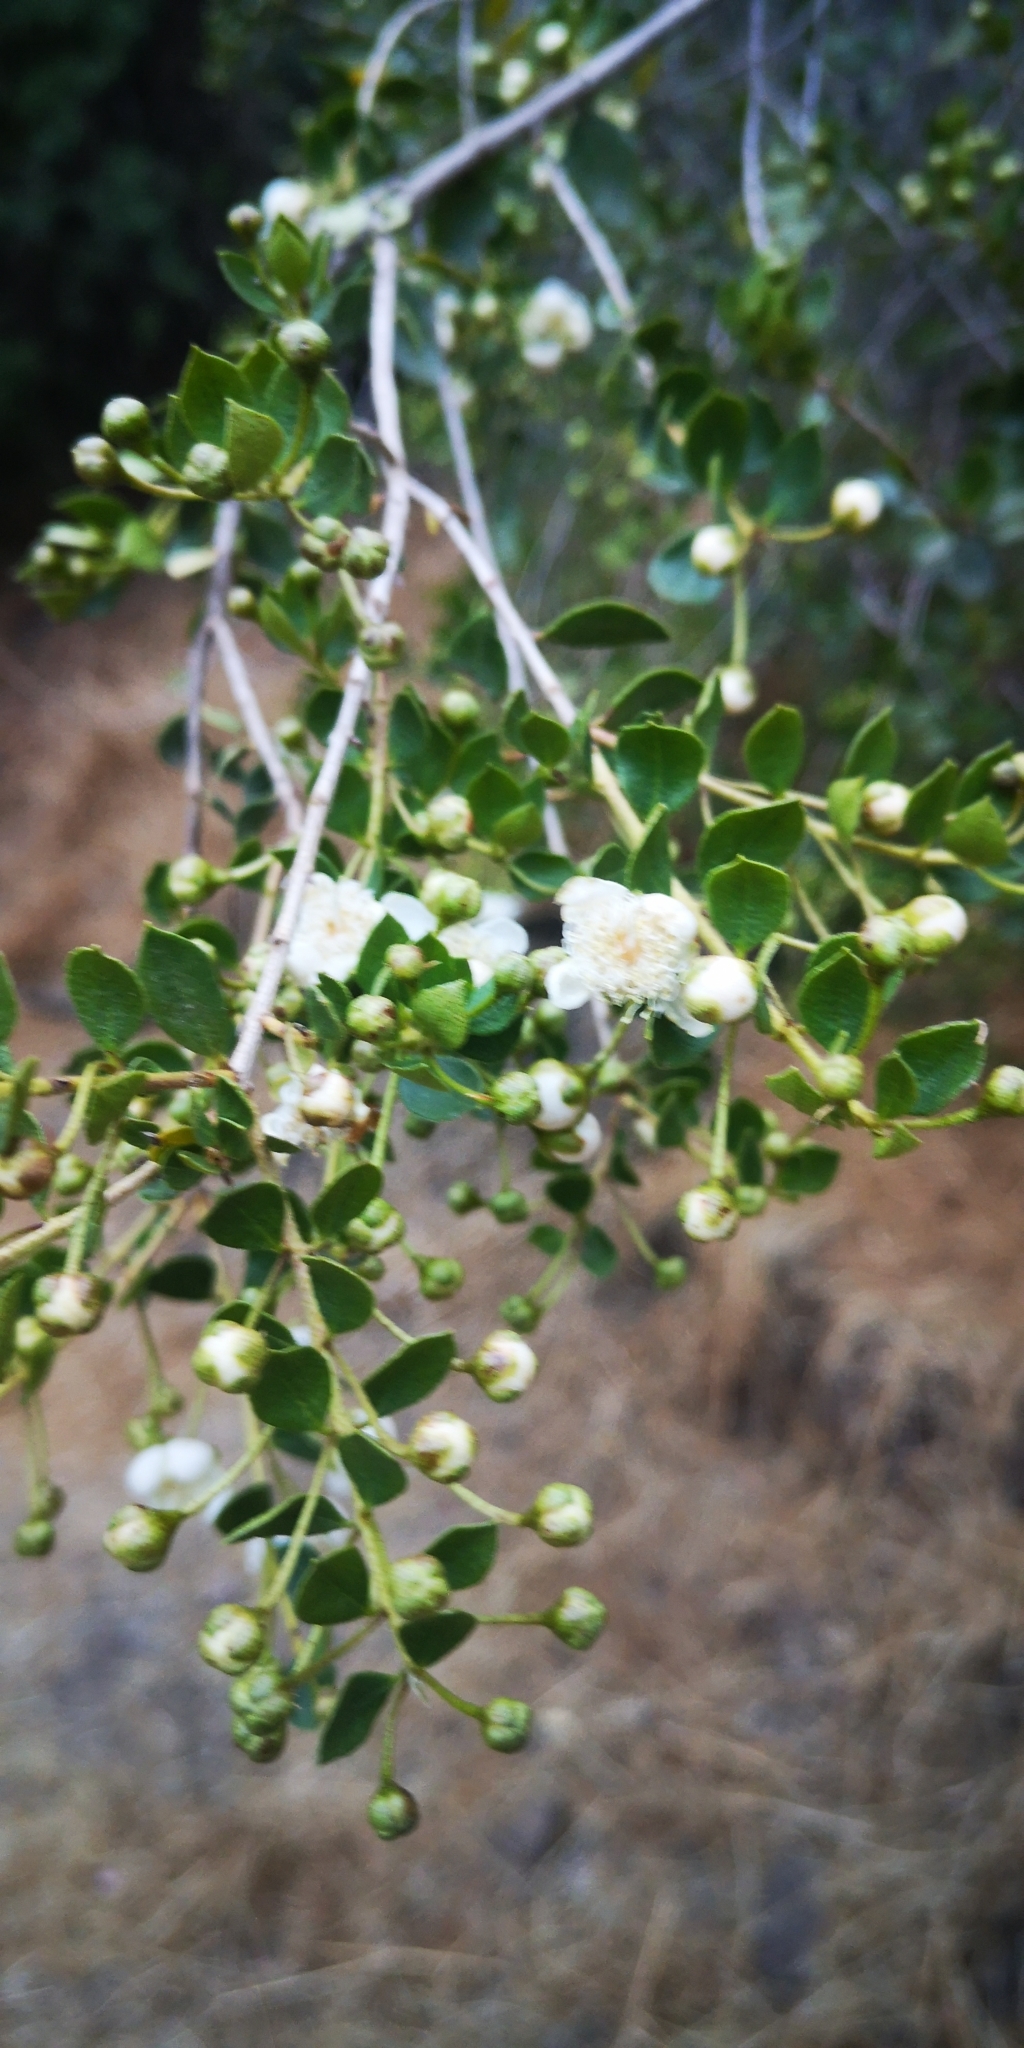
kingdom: Plantae
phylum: Tracheophyta
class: Magnoliopsida
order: Myrtales
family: Myrtaceae
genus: Luma
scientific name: Luma chequen
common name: Cheken
